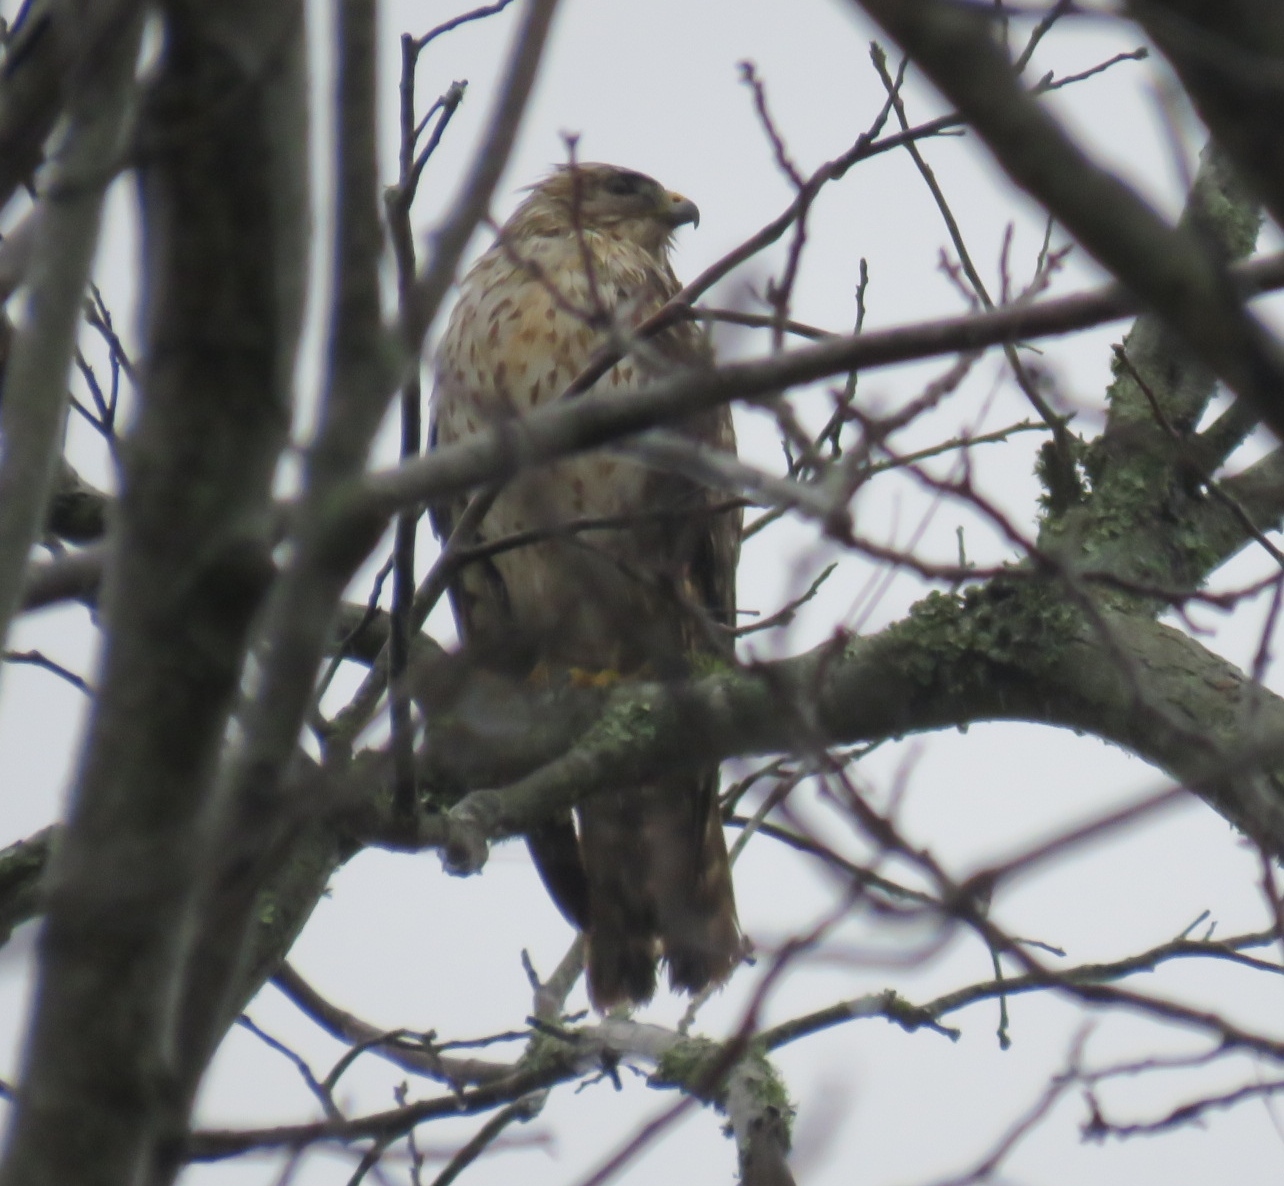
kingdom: Animalia
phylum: Chordata
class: Aves
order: Accipitriformes
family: Accipitridae
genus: Buteo
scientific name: Buteo lineatus
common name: Red-shouldered hawk
